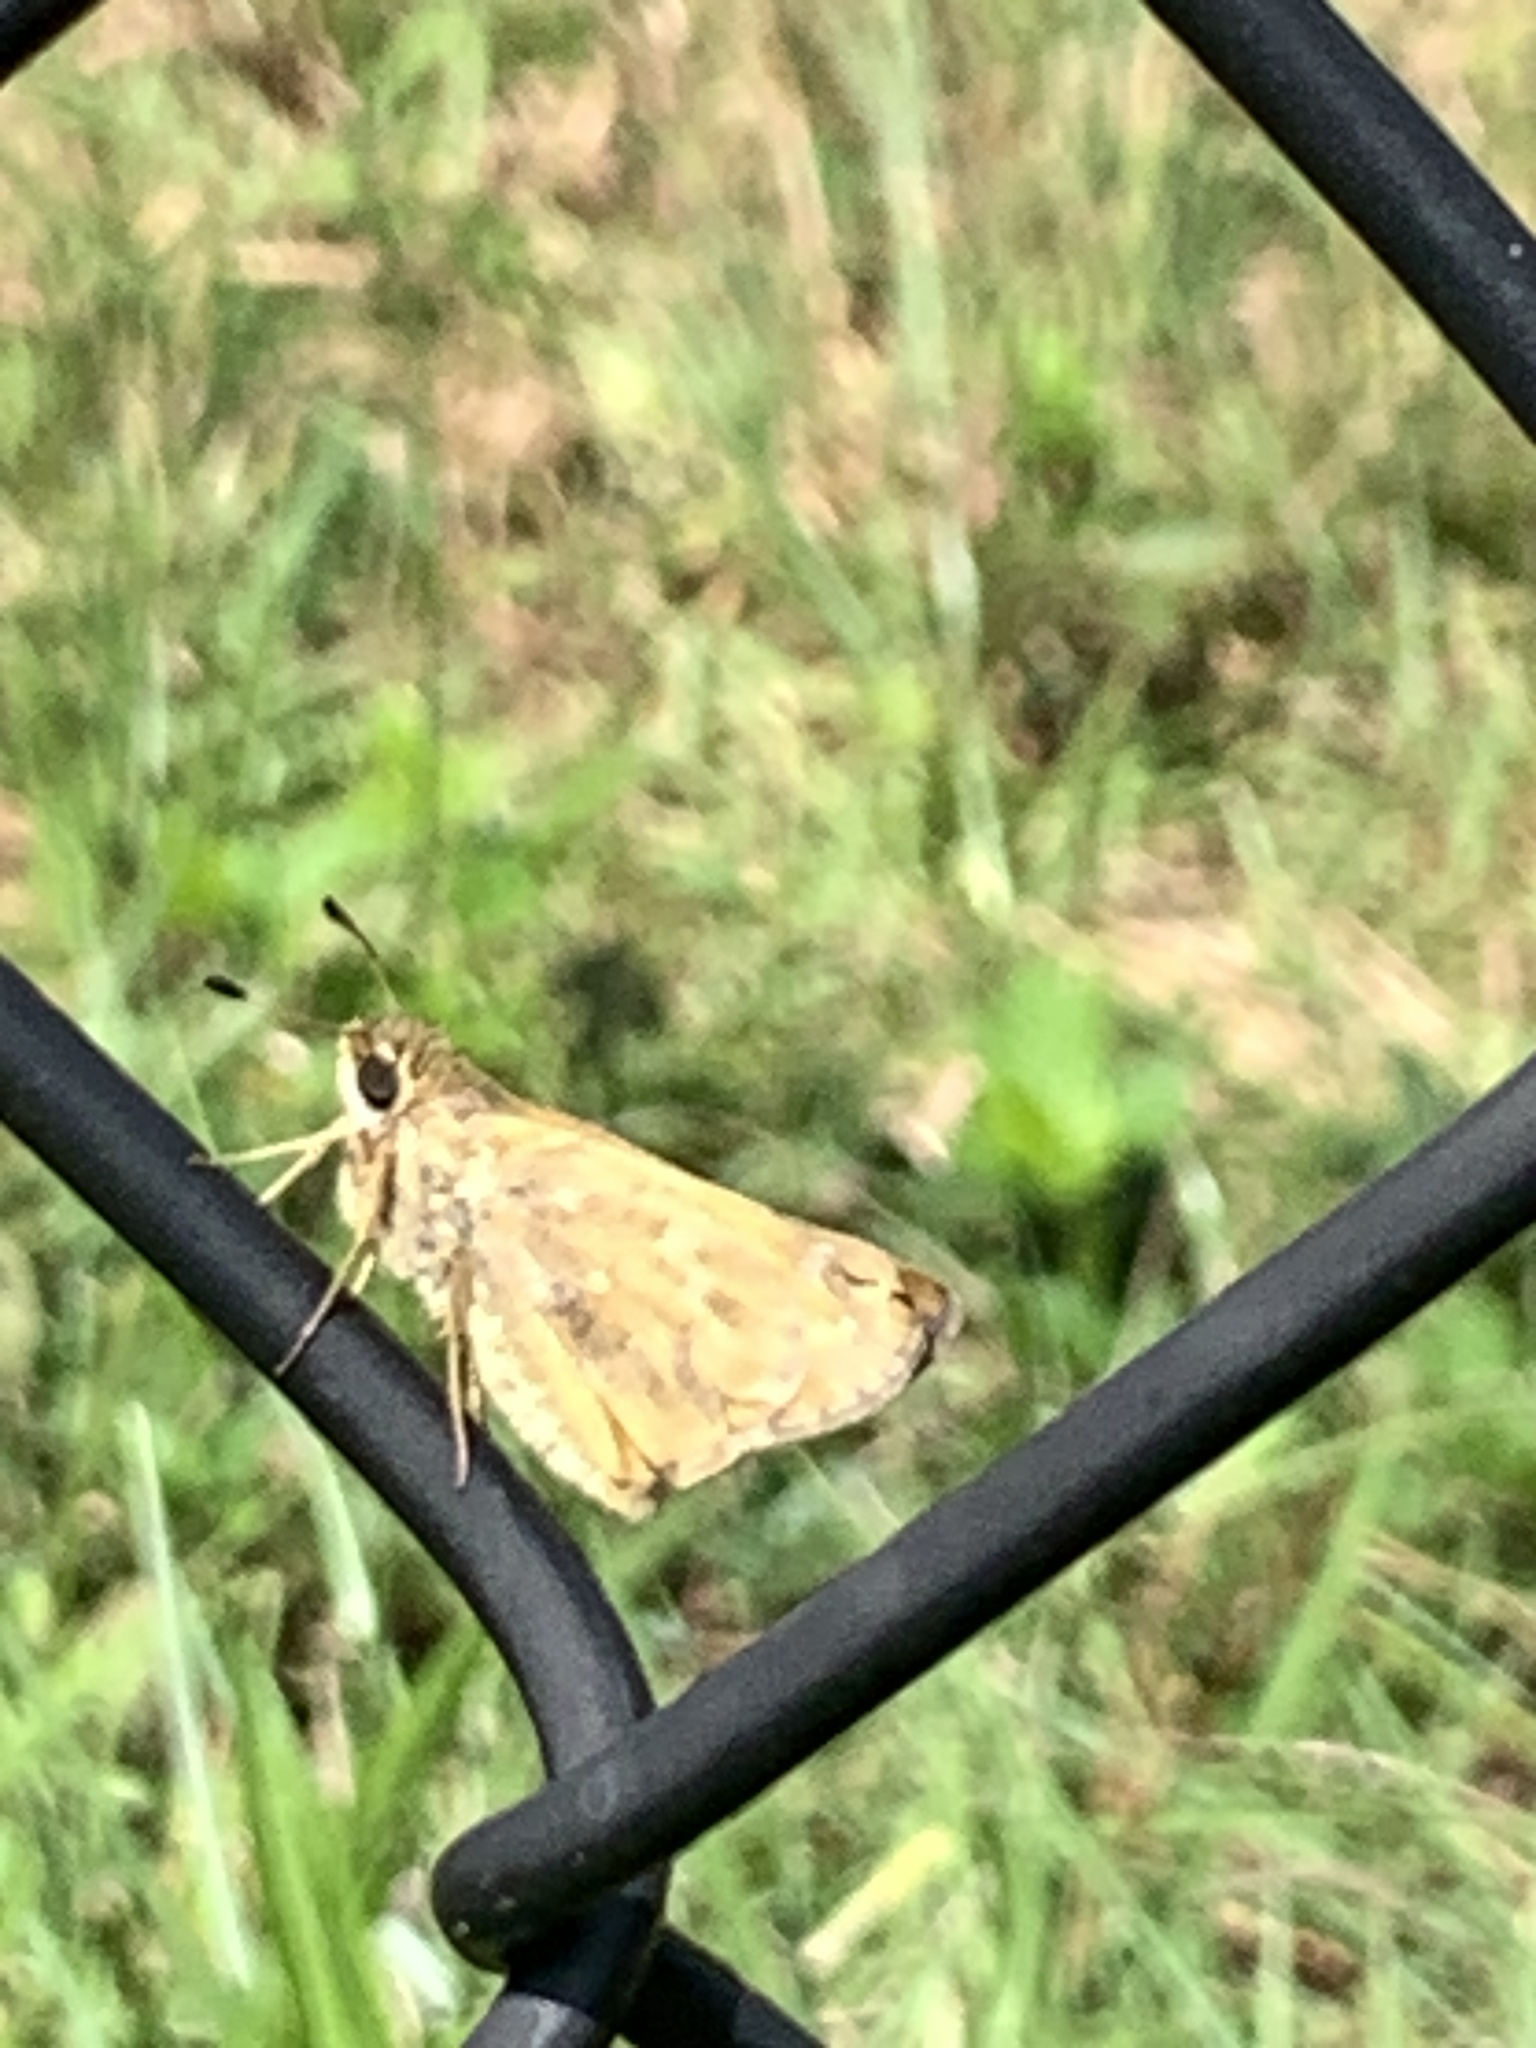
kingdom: Animalia
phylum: Arthropoda
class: Insecta
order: Lepidoptera
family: Hesperiidae
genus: Atalopedes
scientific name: Atalopedes
